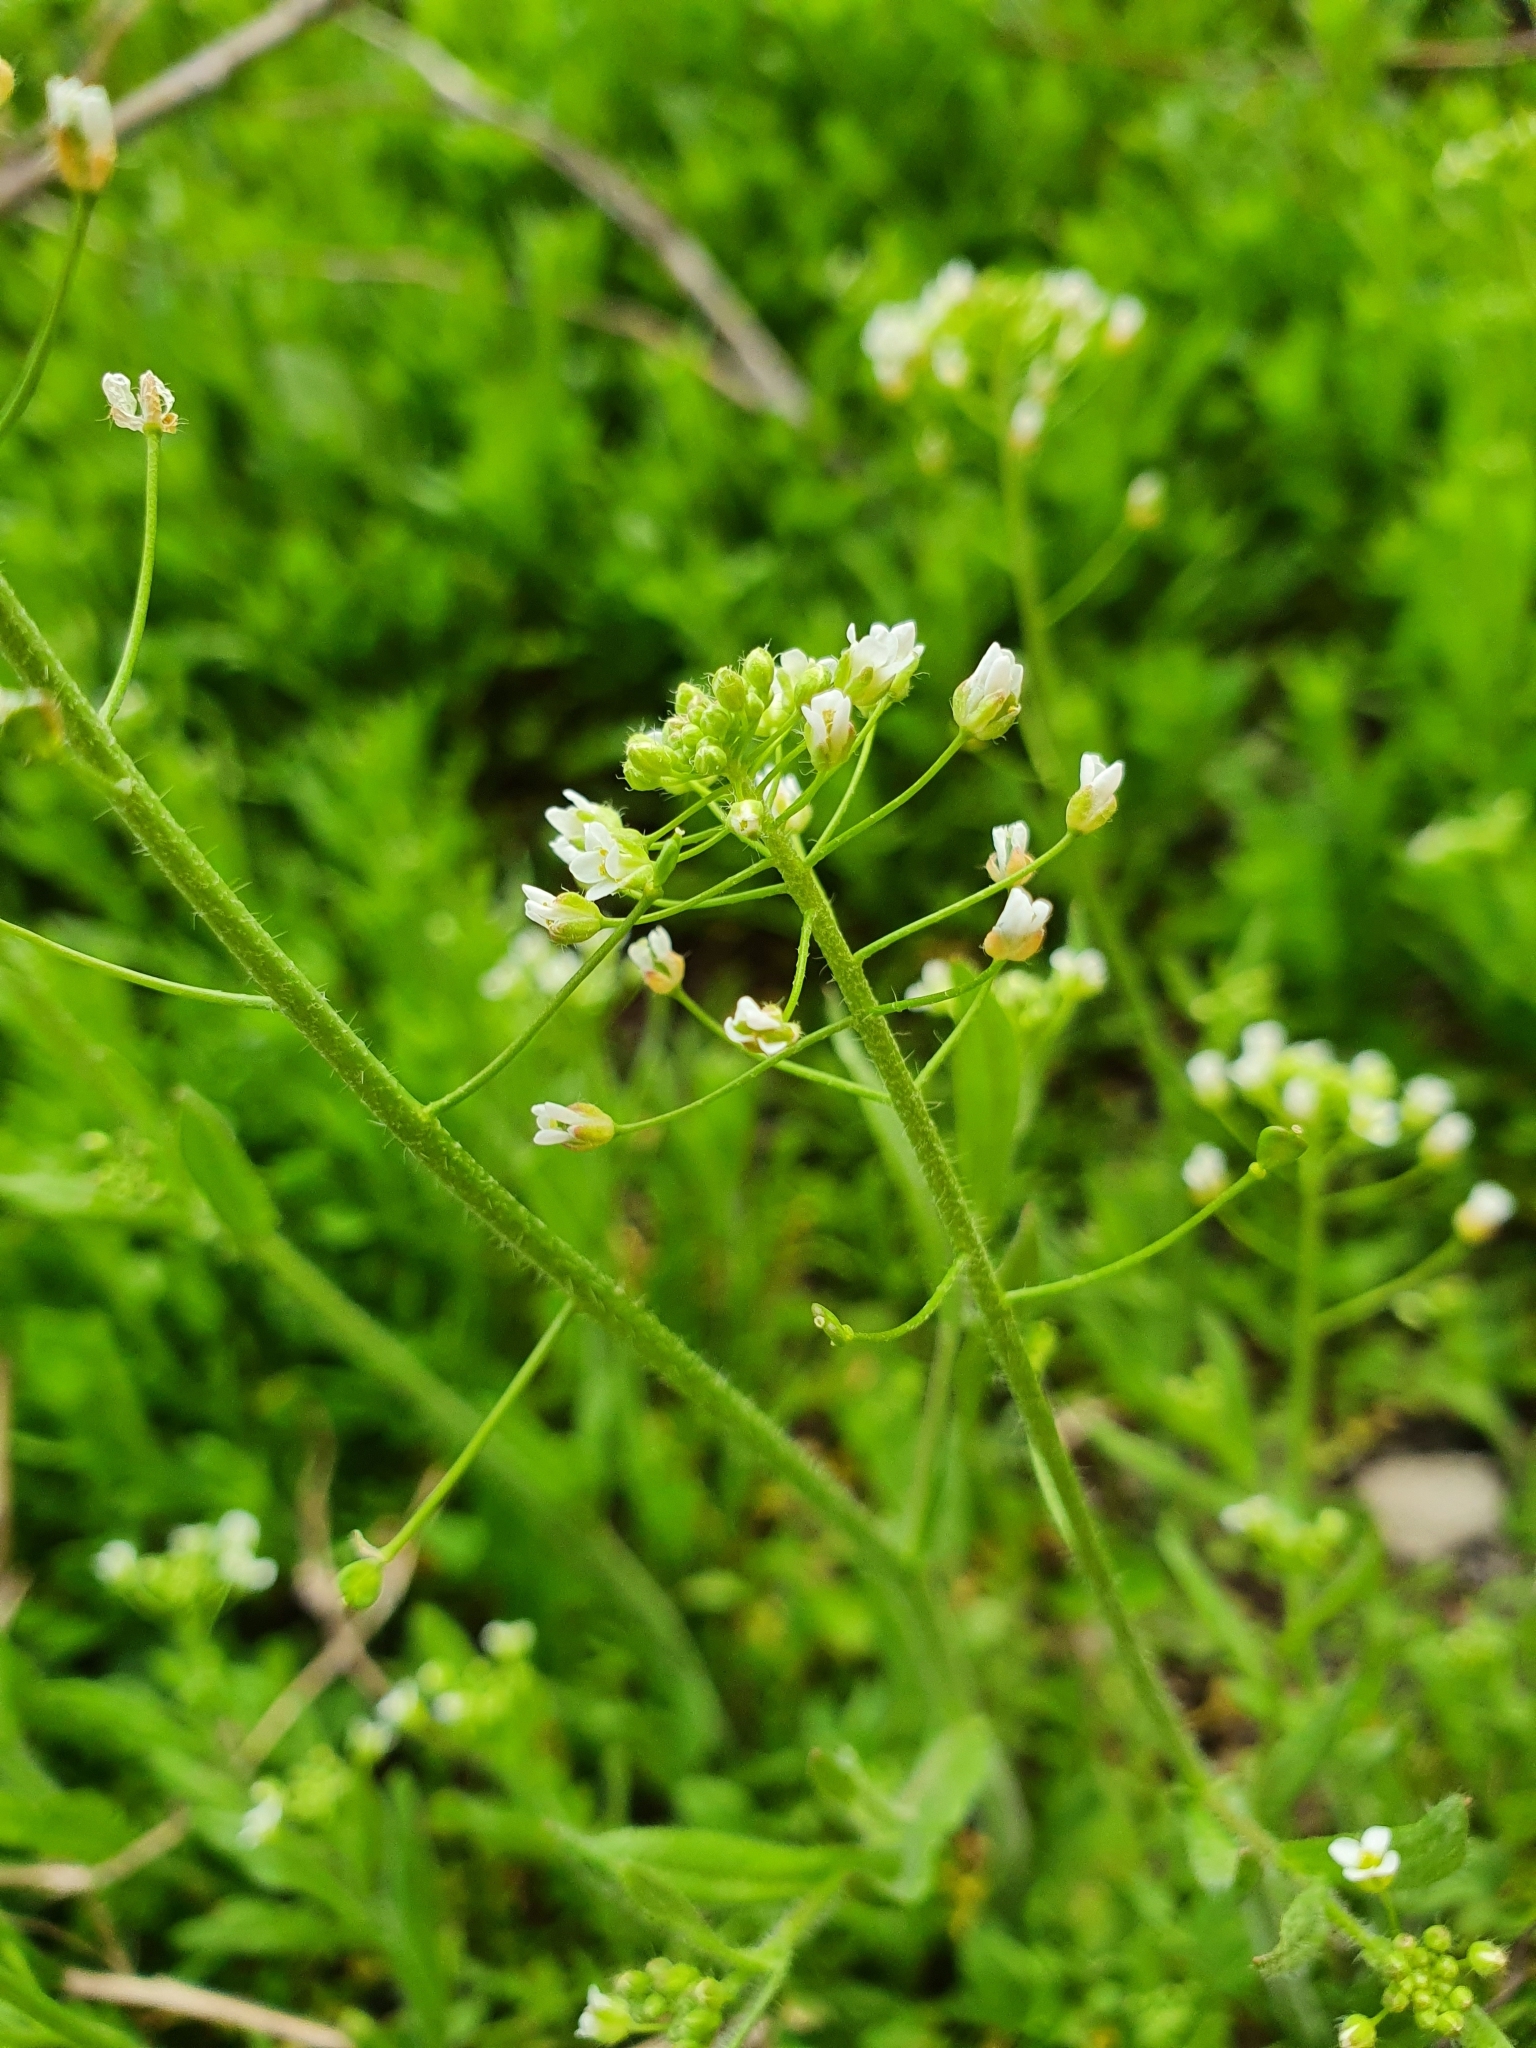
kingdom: Plantae
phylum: Tracheophyta
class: Magnoliopsida
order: Brassicales
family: Brassicaceae
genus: Capsella
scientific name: Capsella bursa-pastoris
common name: Shepherd's purse
